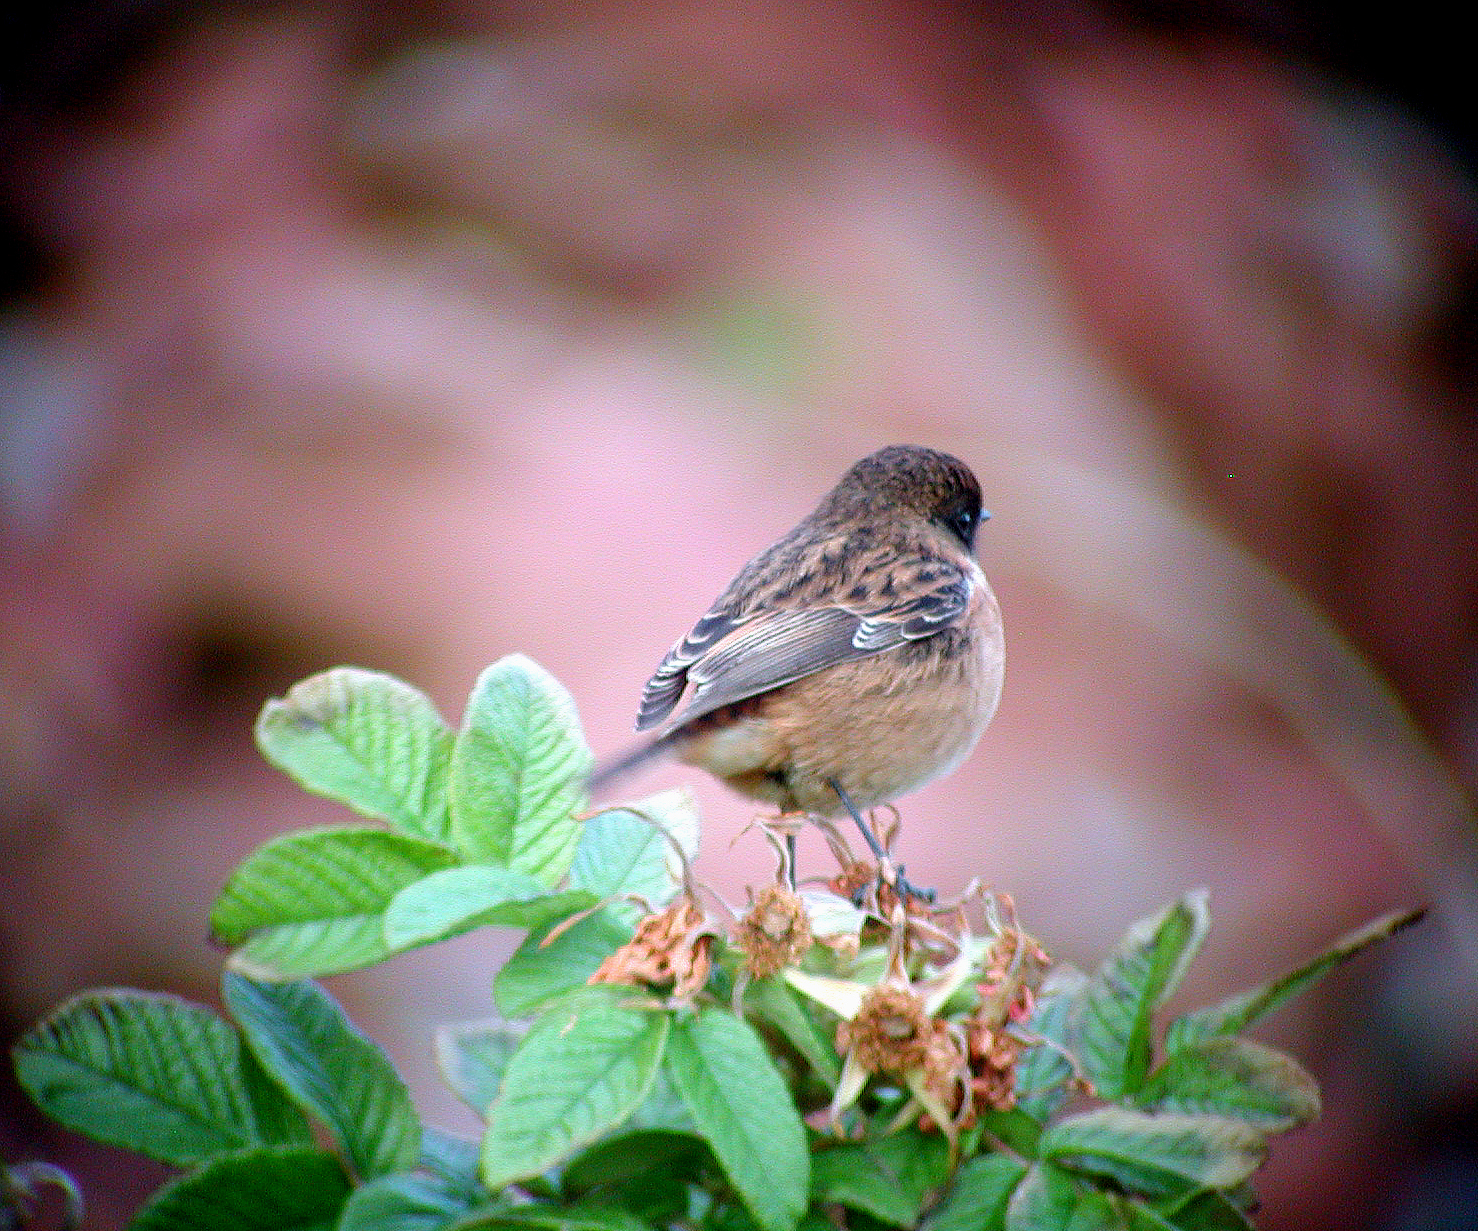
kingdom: Animalia
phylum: Chordata
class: Aves
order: Passeriformes
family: Muscicapidae
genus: Saxicola
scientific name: Saxicola rubicola
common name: European stonechat
